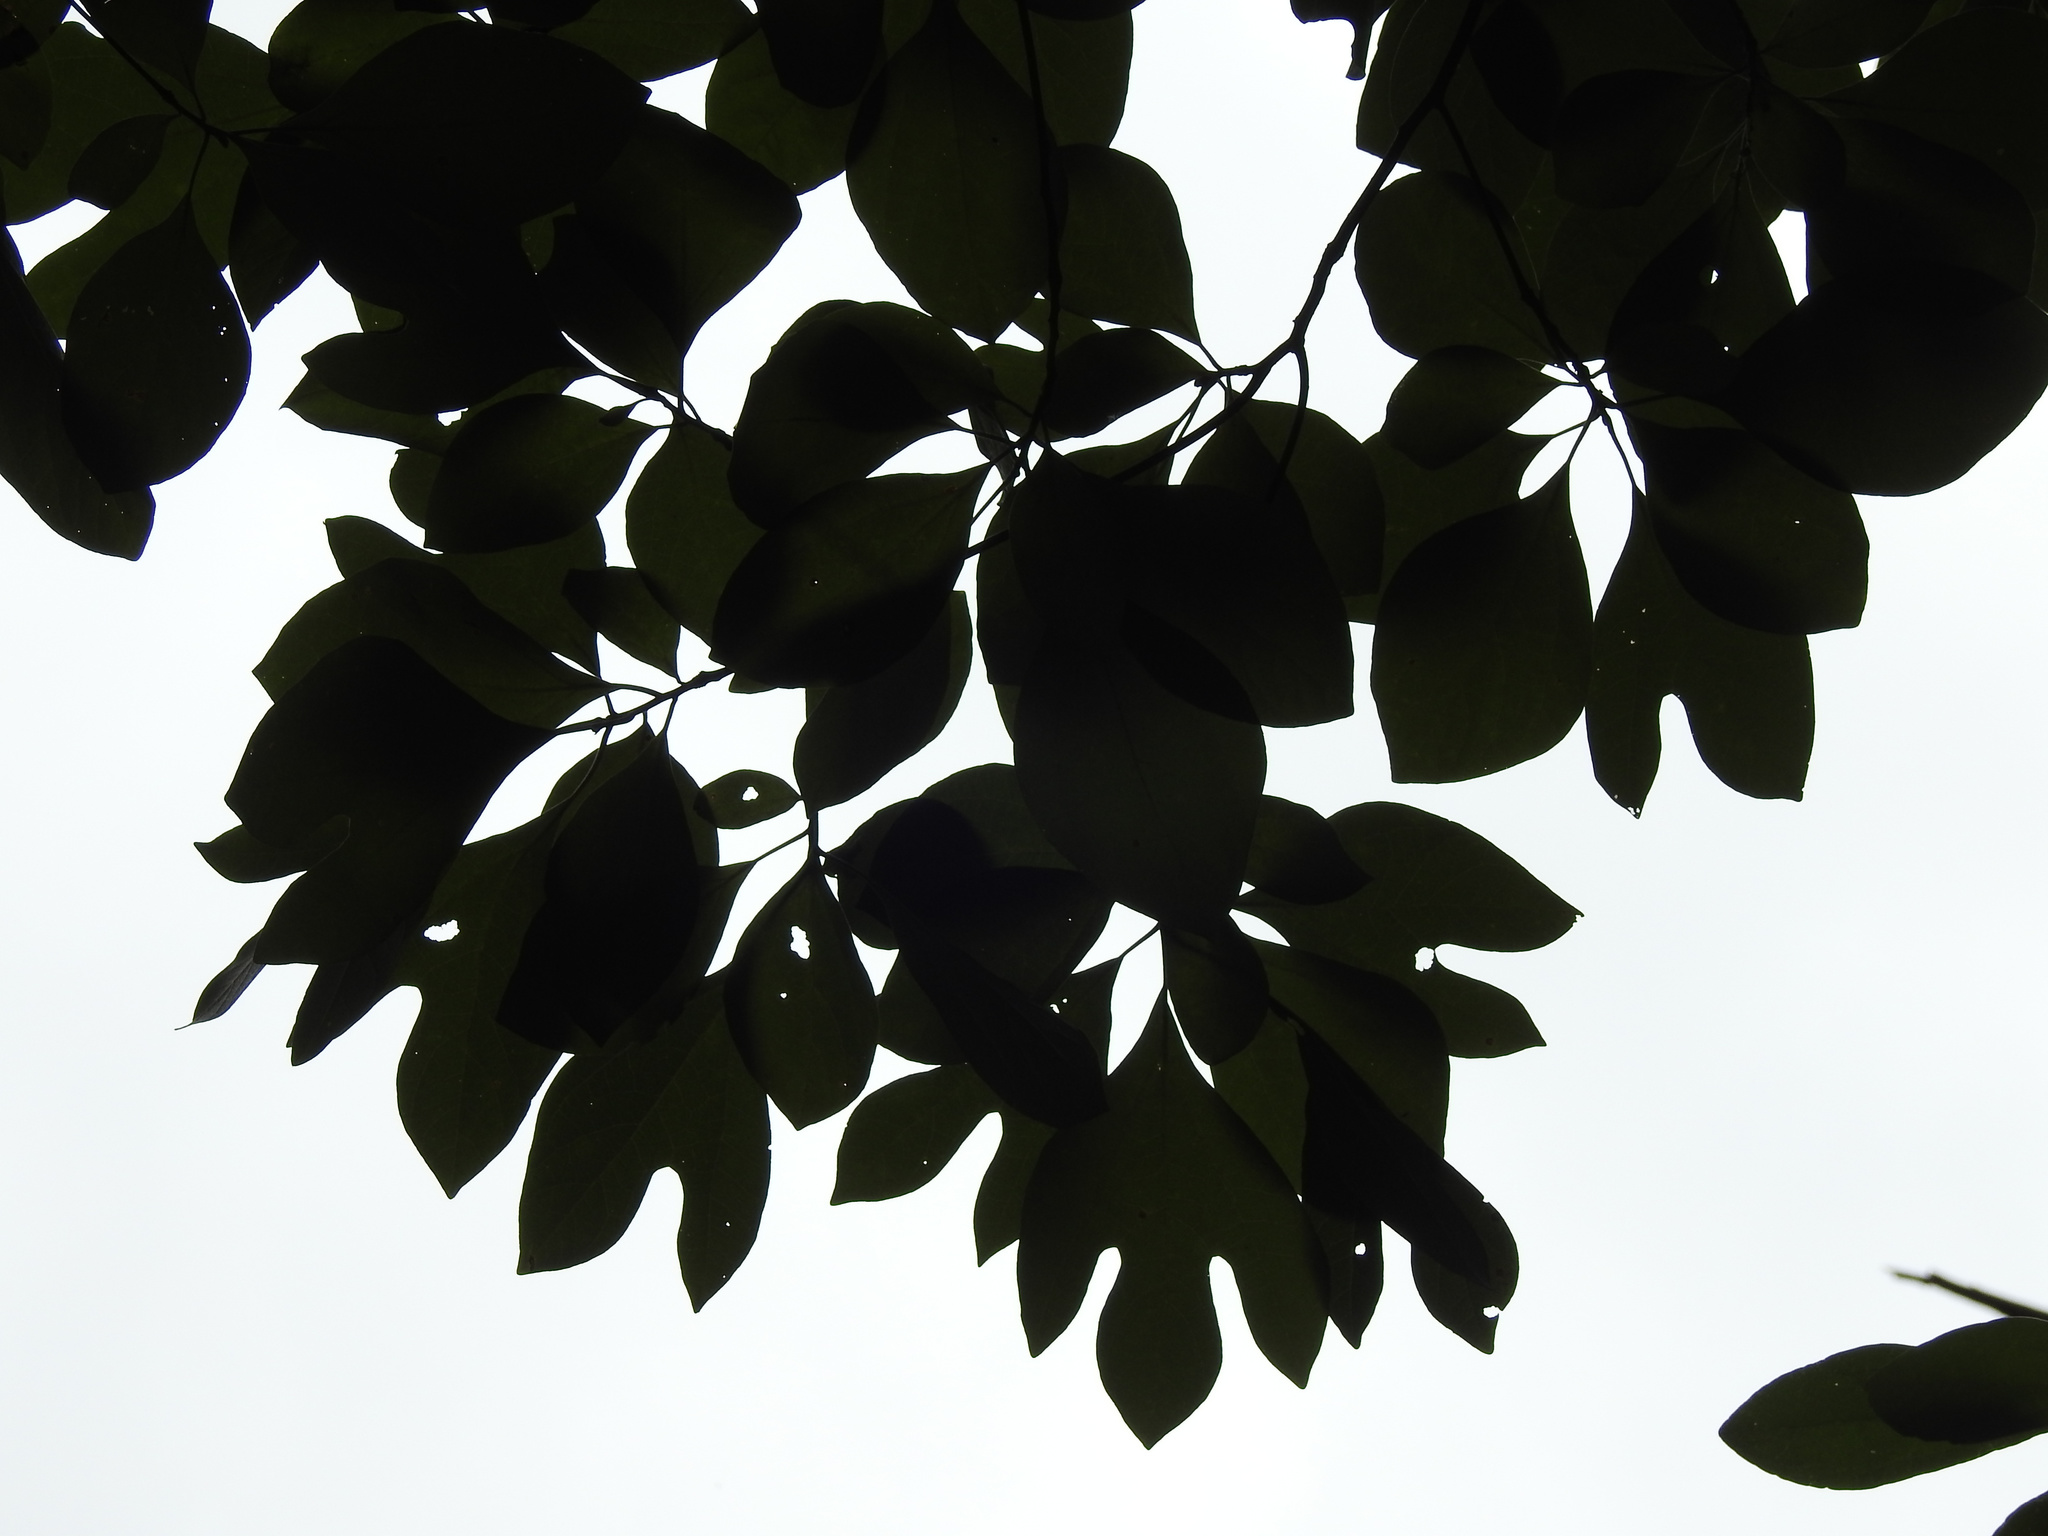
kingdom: Plantae
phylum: Tracheophyta
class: Magnoliopsida
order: Laurales
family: Lauraceae
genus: Sassafras
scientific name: Sassafras albidum
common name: Sassafras
